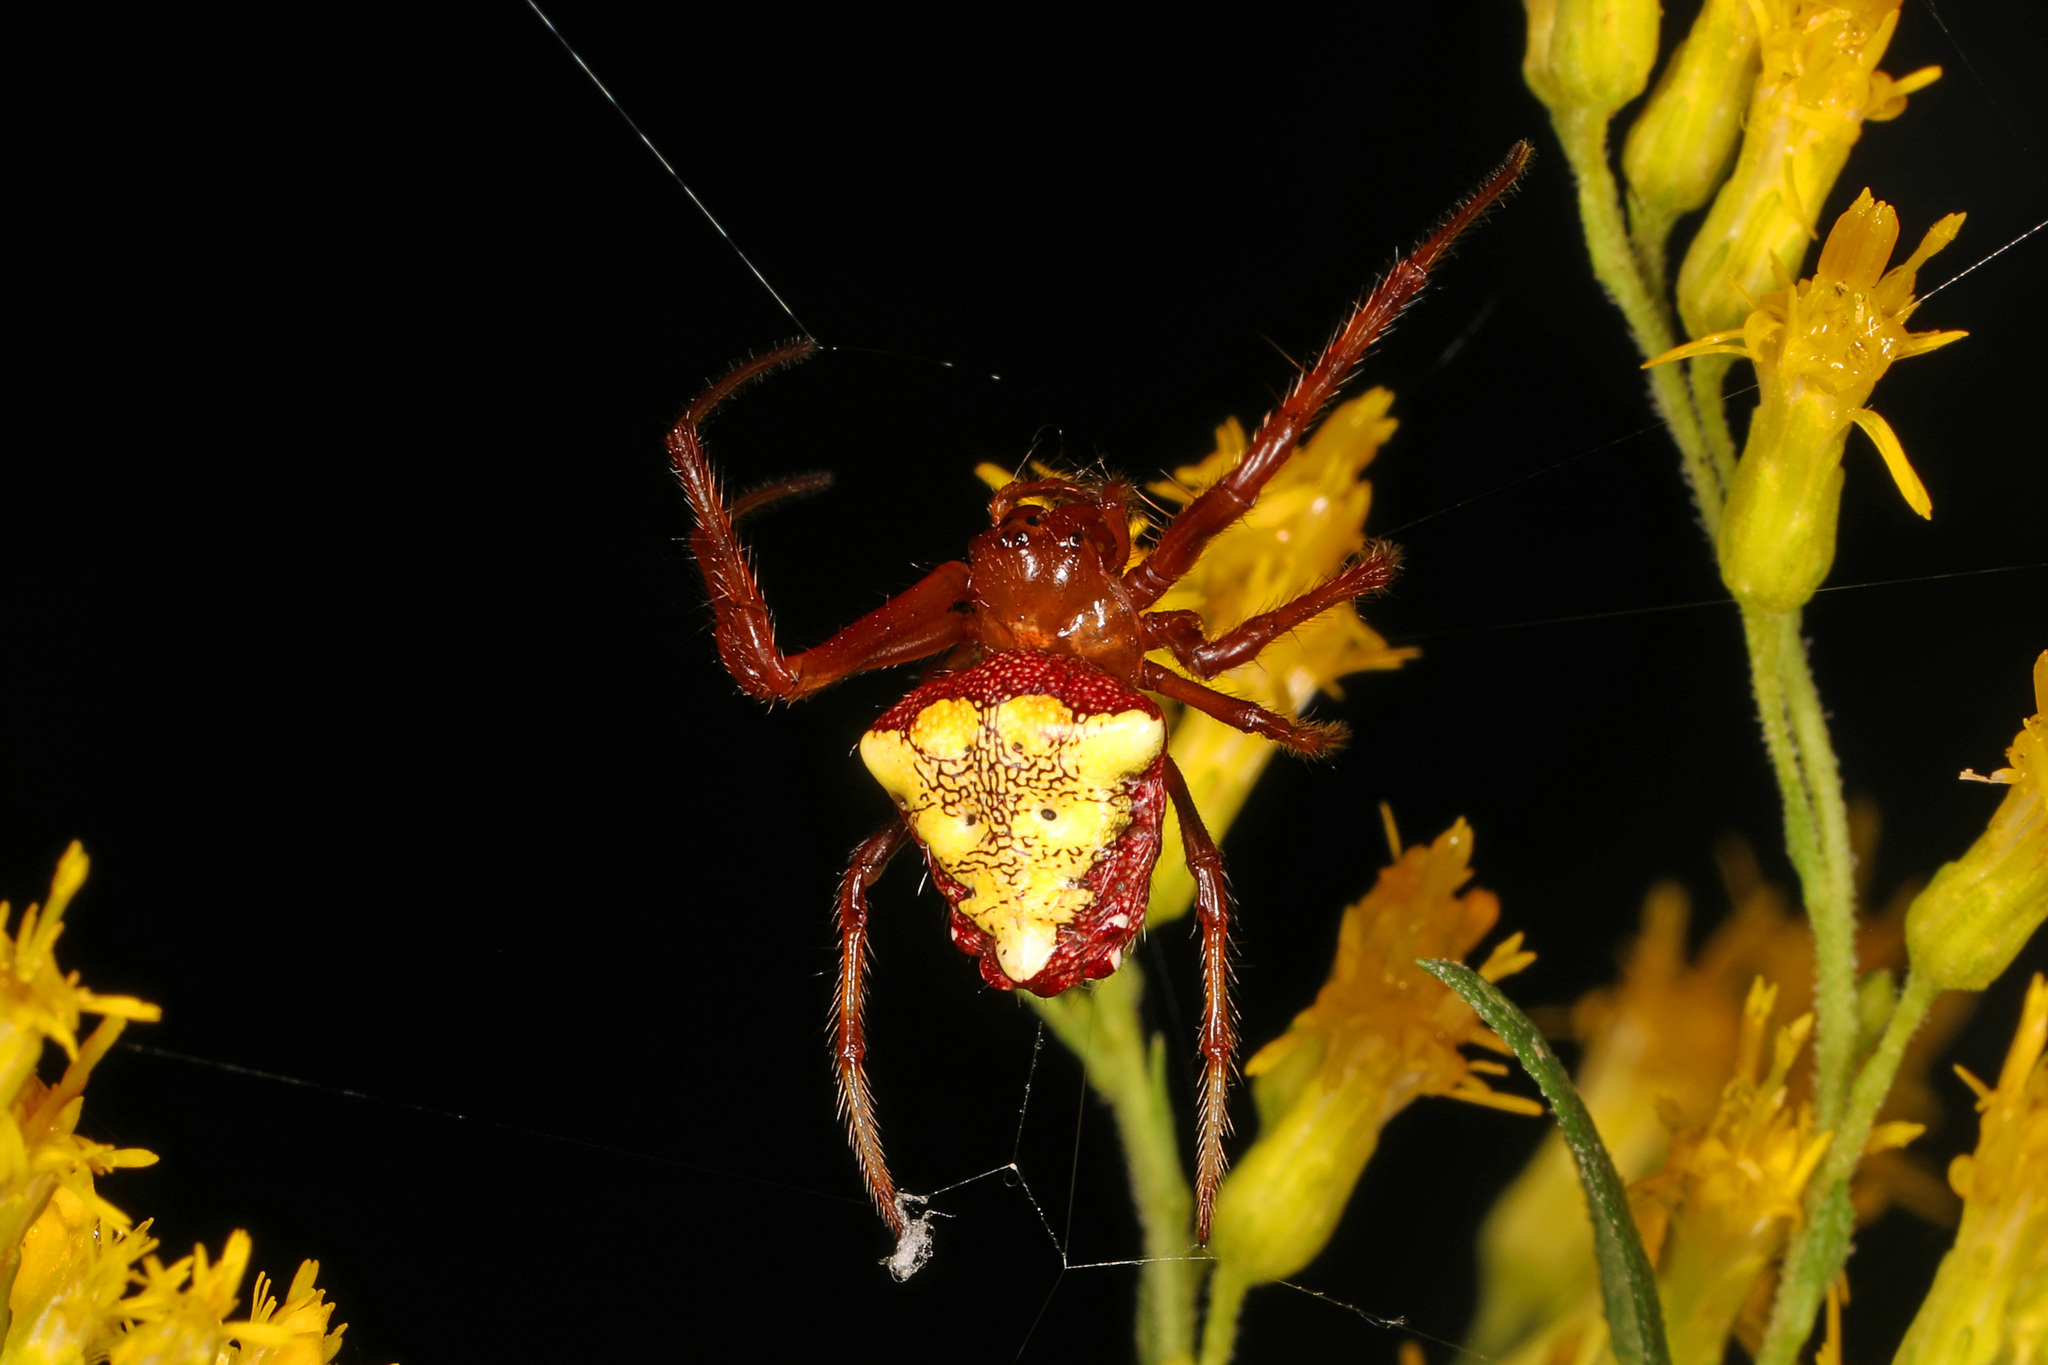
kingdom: Animalia
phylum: Arthropoda
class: Arachnida
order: Araneae
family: Araneidae
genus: Verrucosa
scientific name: Verrucosa arenata
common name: Orb weavers
